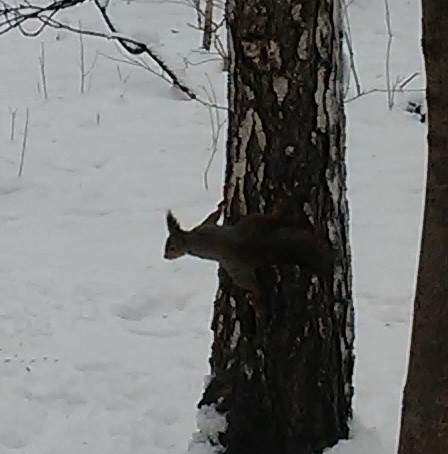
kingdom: Animalia
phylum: Chordata
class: Mammalia
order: Rodentia
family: Sciuridae
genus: Sciurus
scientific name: Sciurus vulgaris
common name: Eurasian red squirrel
